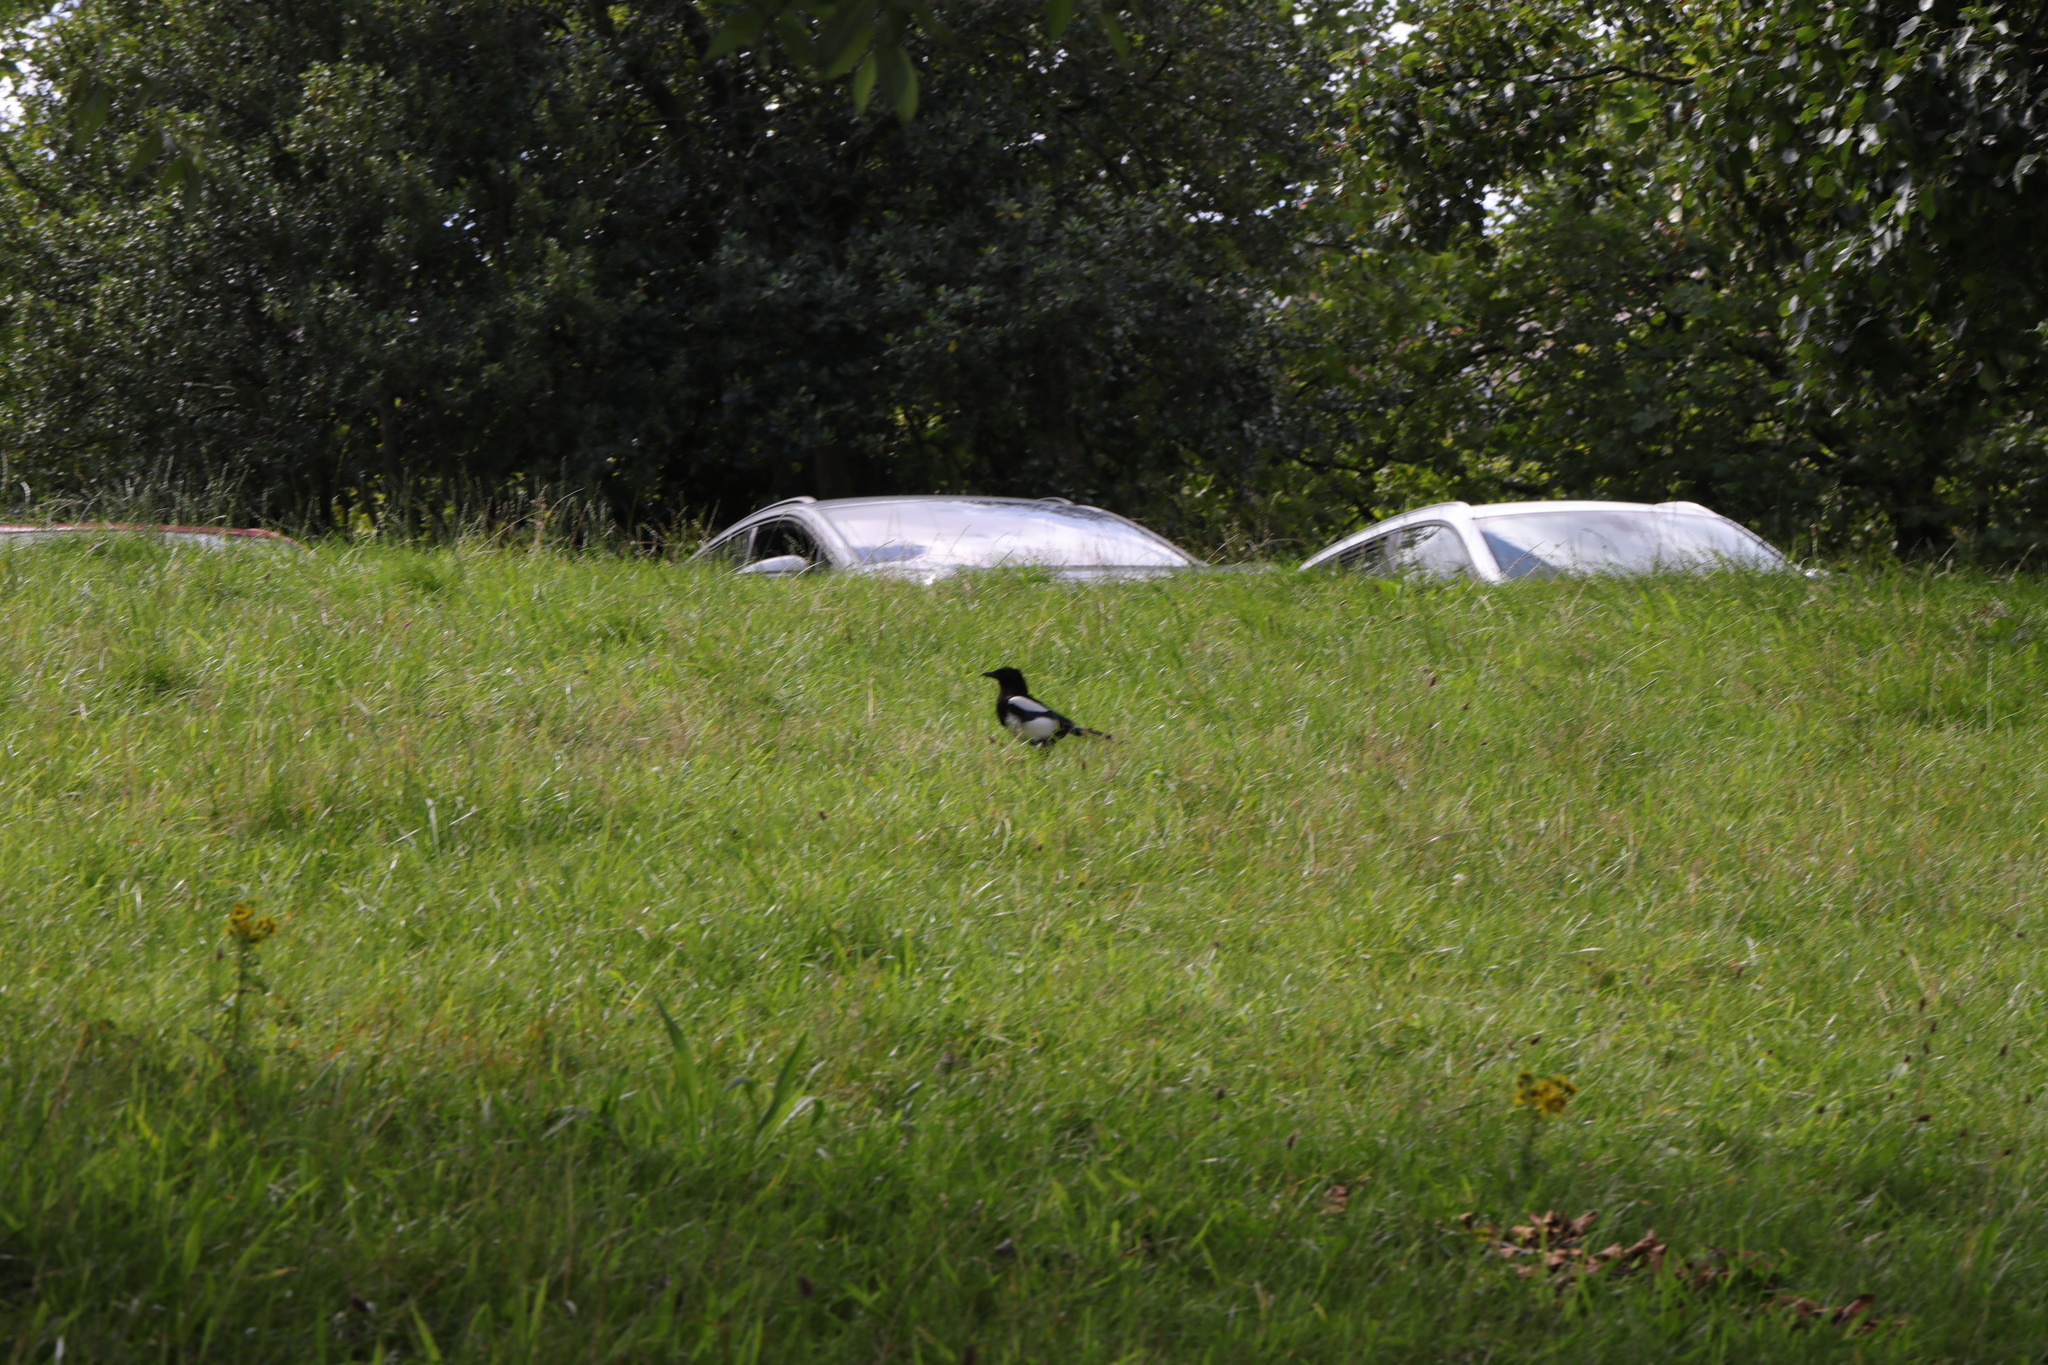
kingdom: Animalia
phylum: Chordata
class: Aves
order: Passeriformes
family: Corvidae
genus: Pica
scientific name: Pica pica
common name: Eurasian magpie
